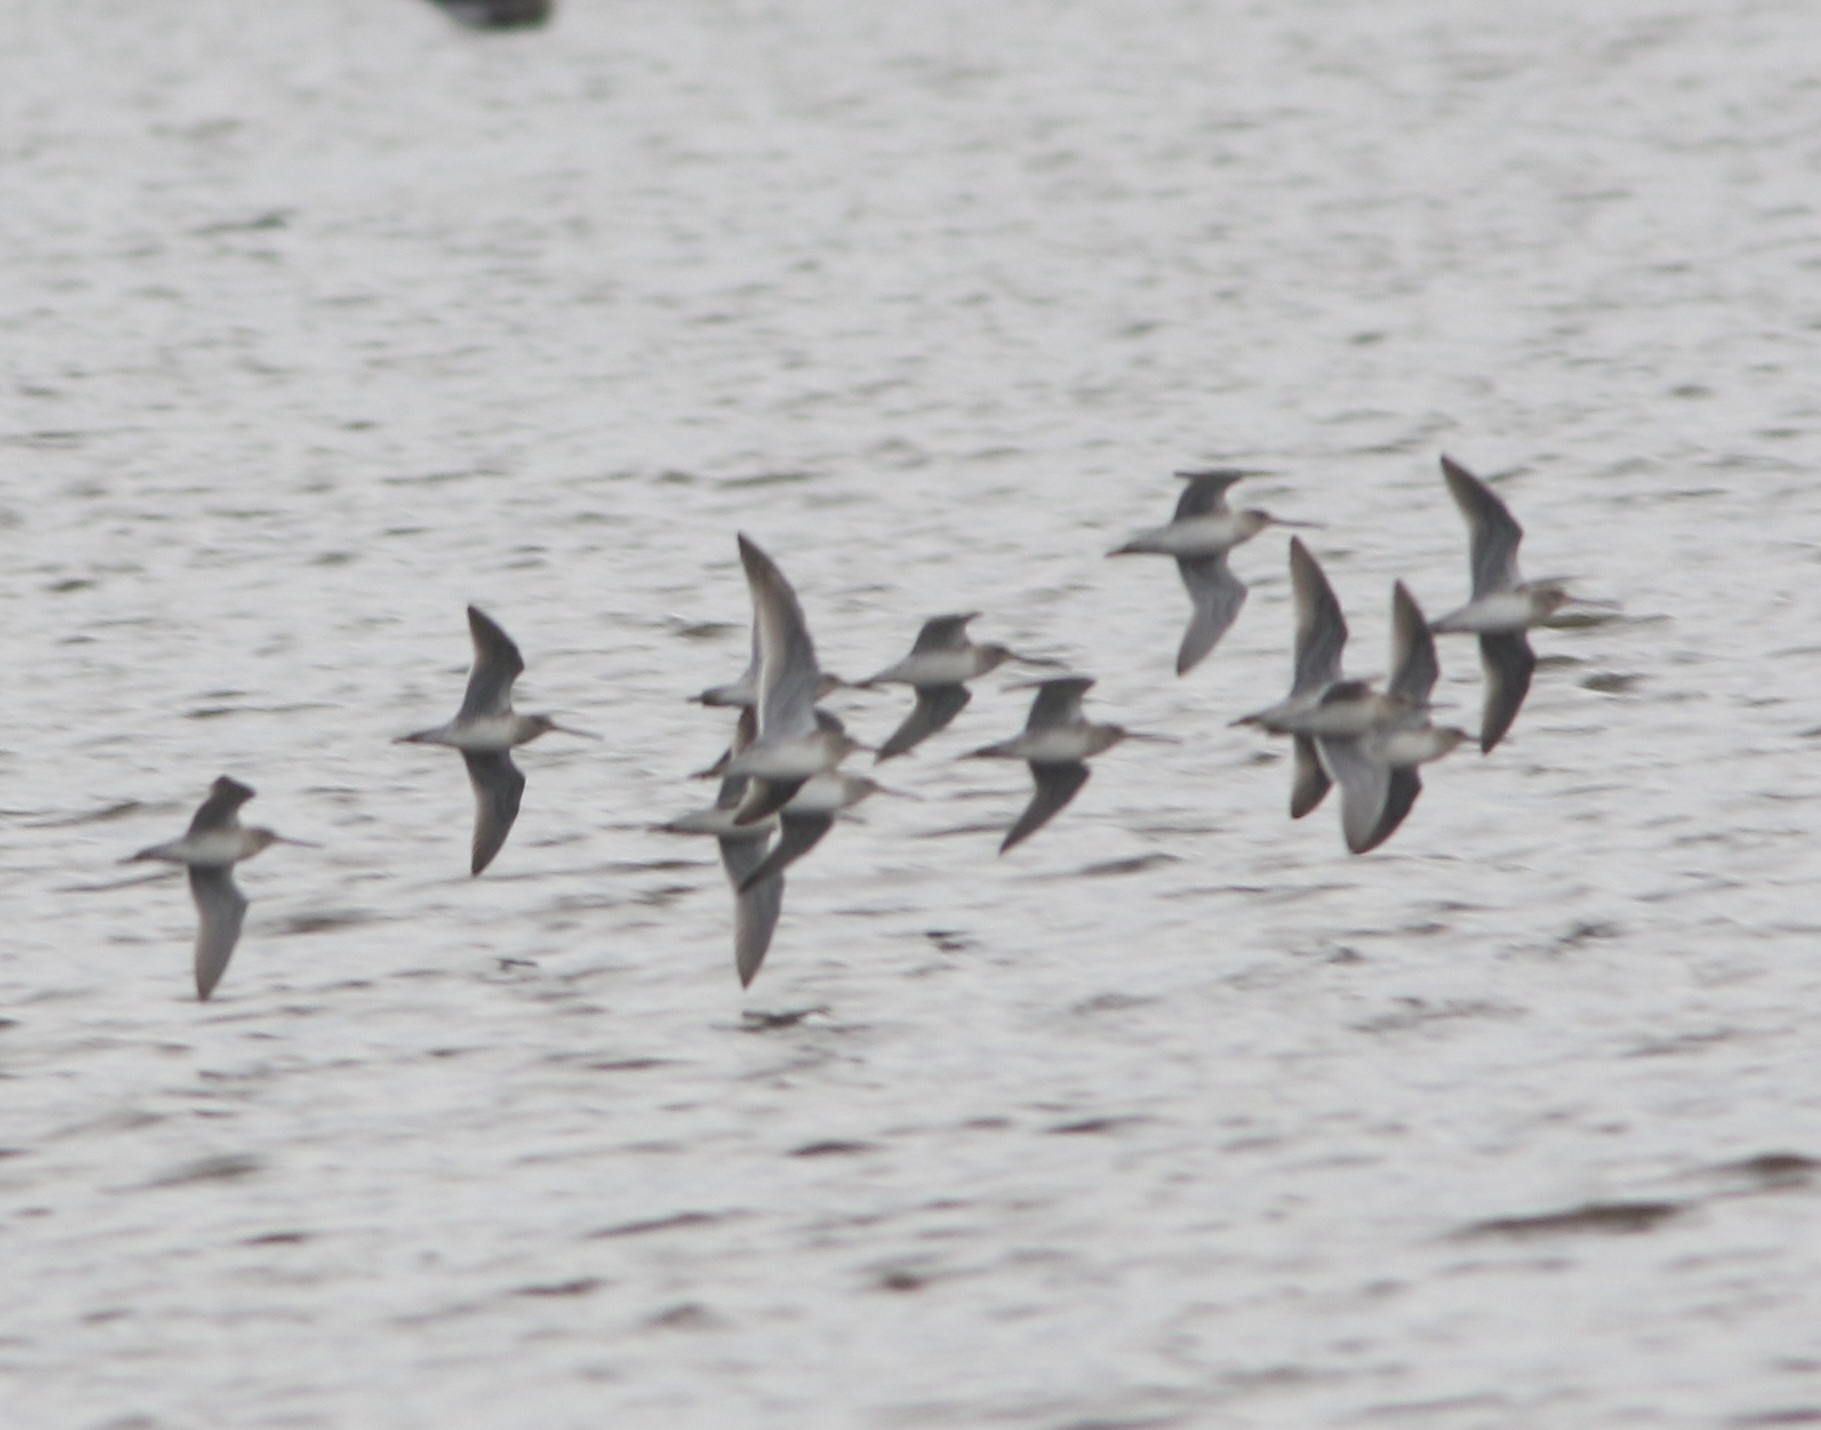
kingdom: Animalia
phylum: Chordata
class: Aves
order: Charadriiformes
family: Scolopacidae
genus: Limnodromus
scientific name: Limnodromus scolopaceus
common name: Long-billed dowitcher
